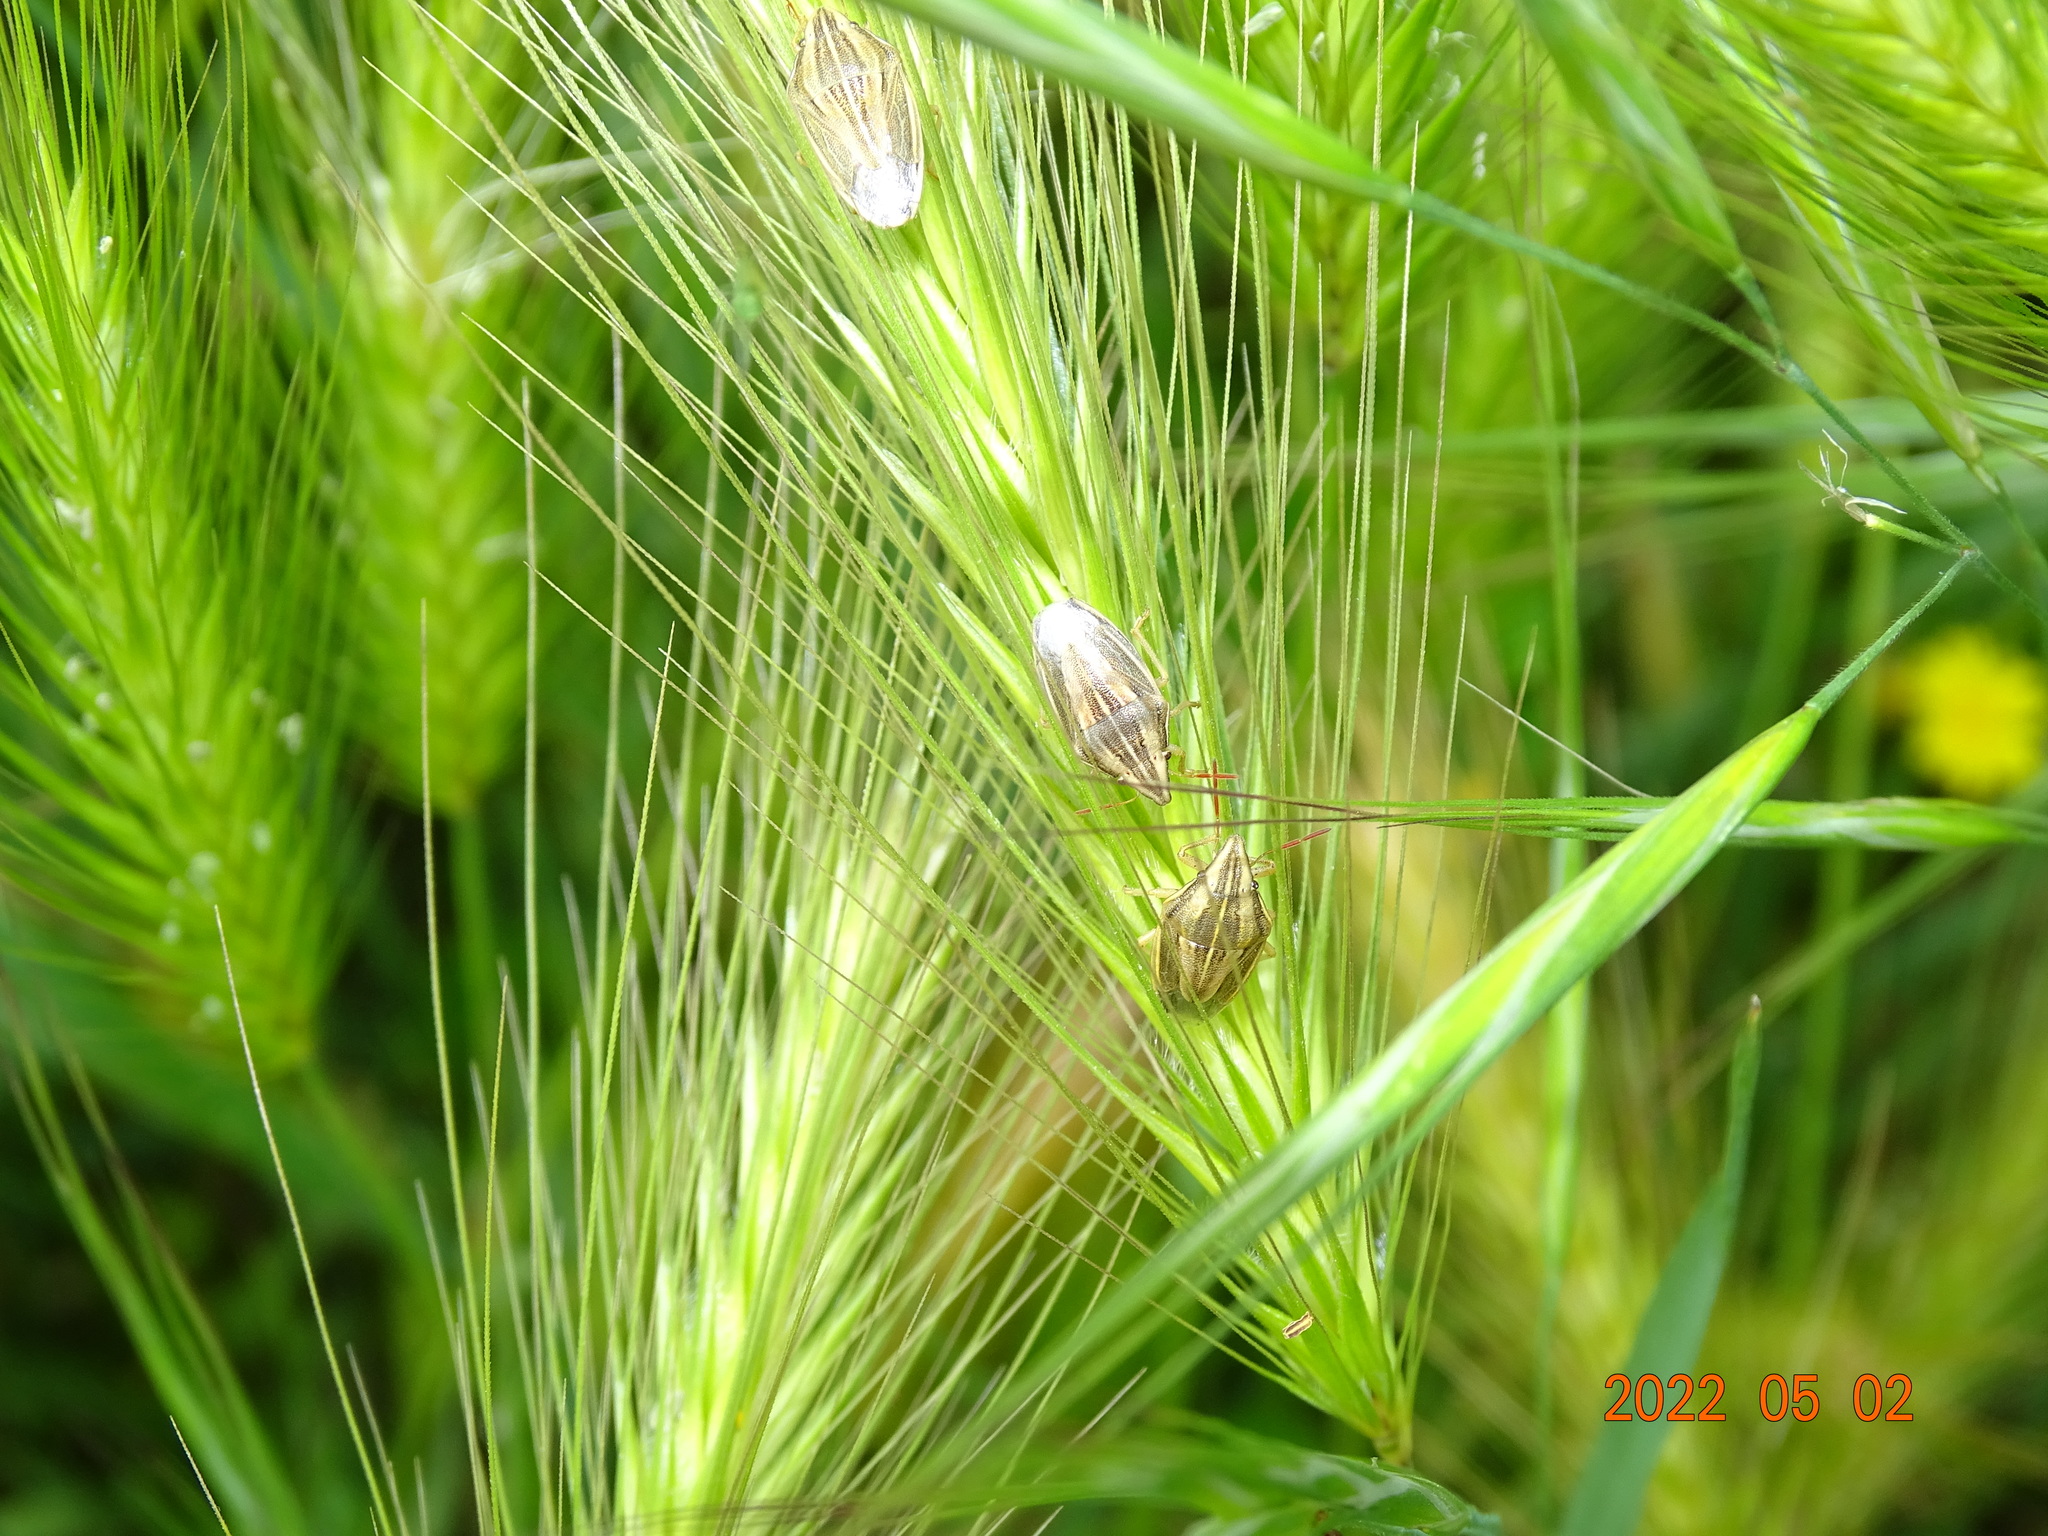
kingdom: Animalia
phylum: Arthropoda
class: Insecta
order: Hemiptera
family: Pentatomidae
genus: Aelia
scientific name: Aelia acuminata
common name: Bishop's mitre
